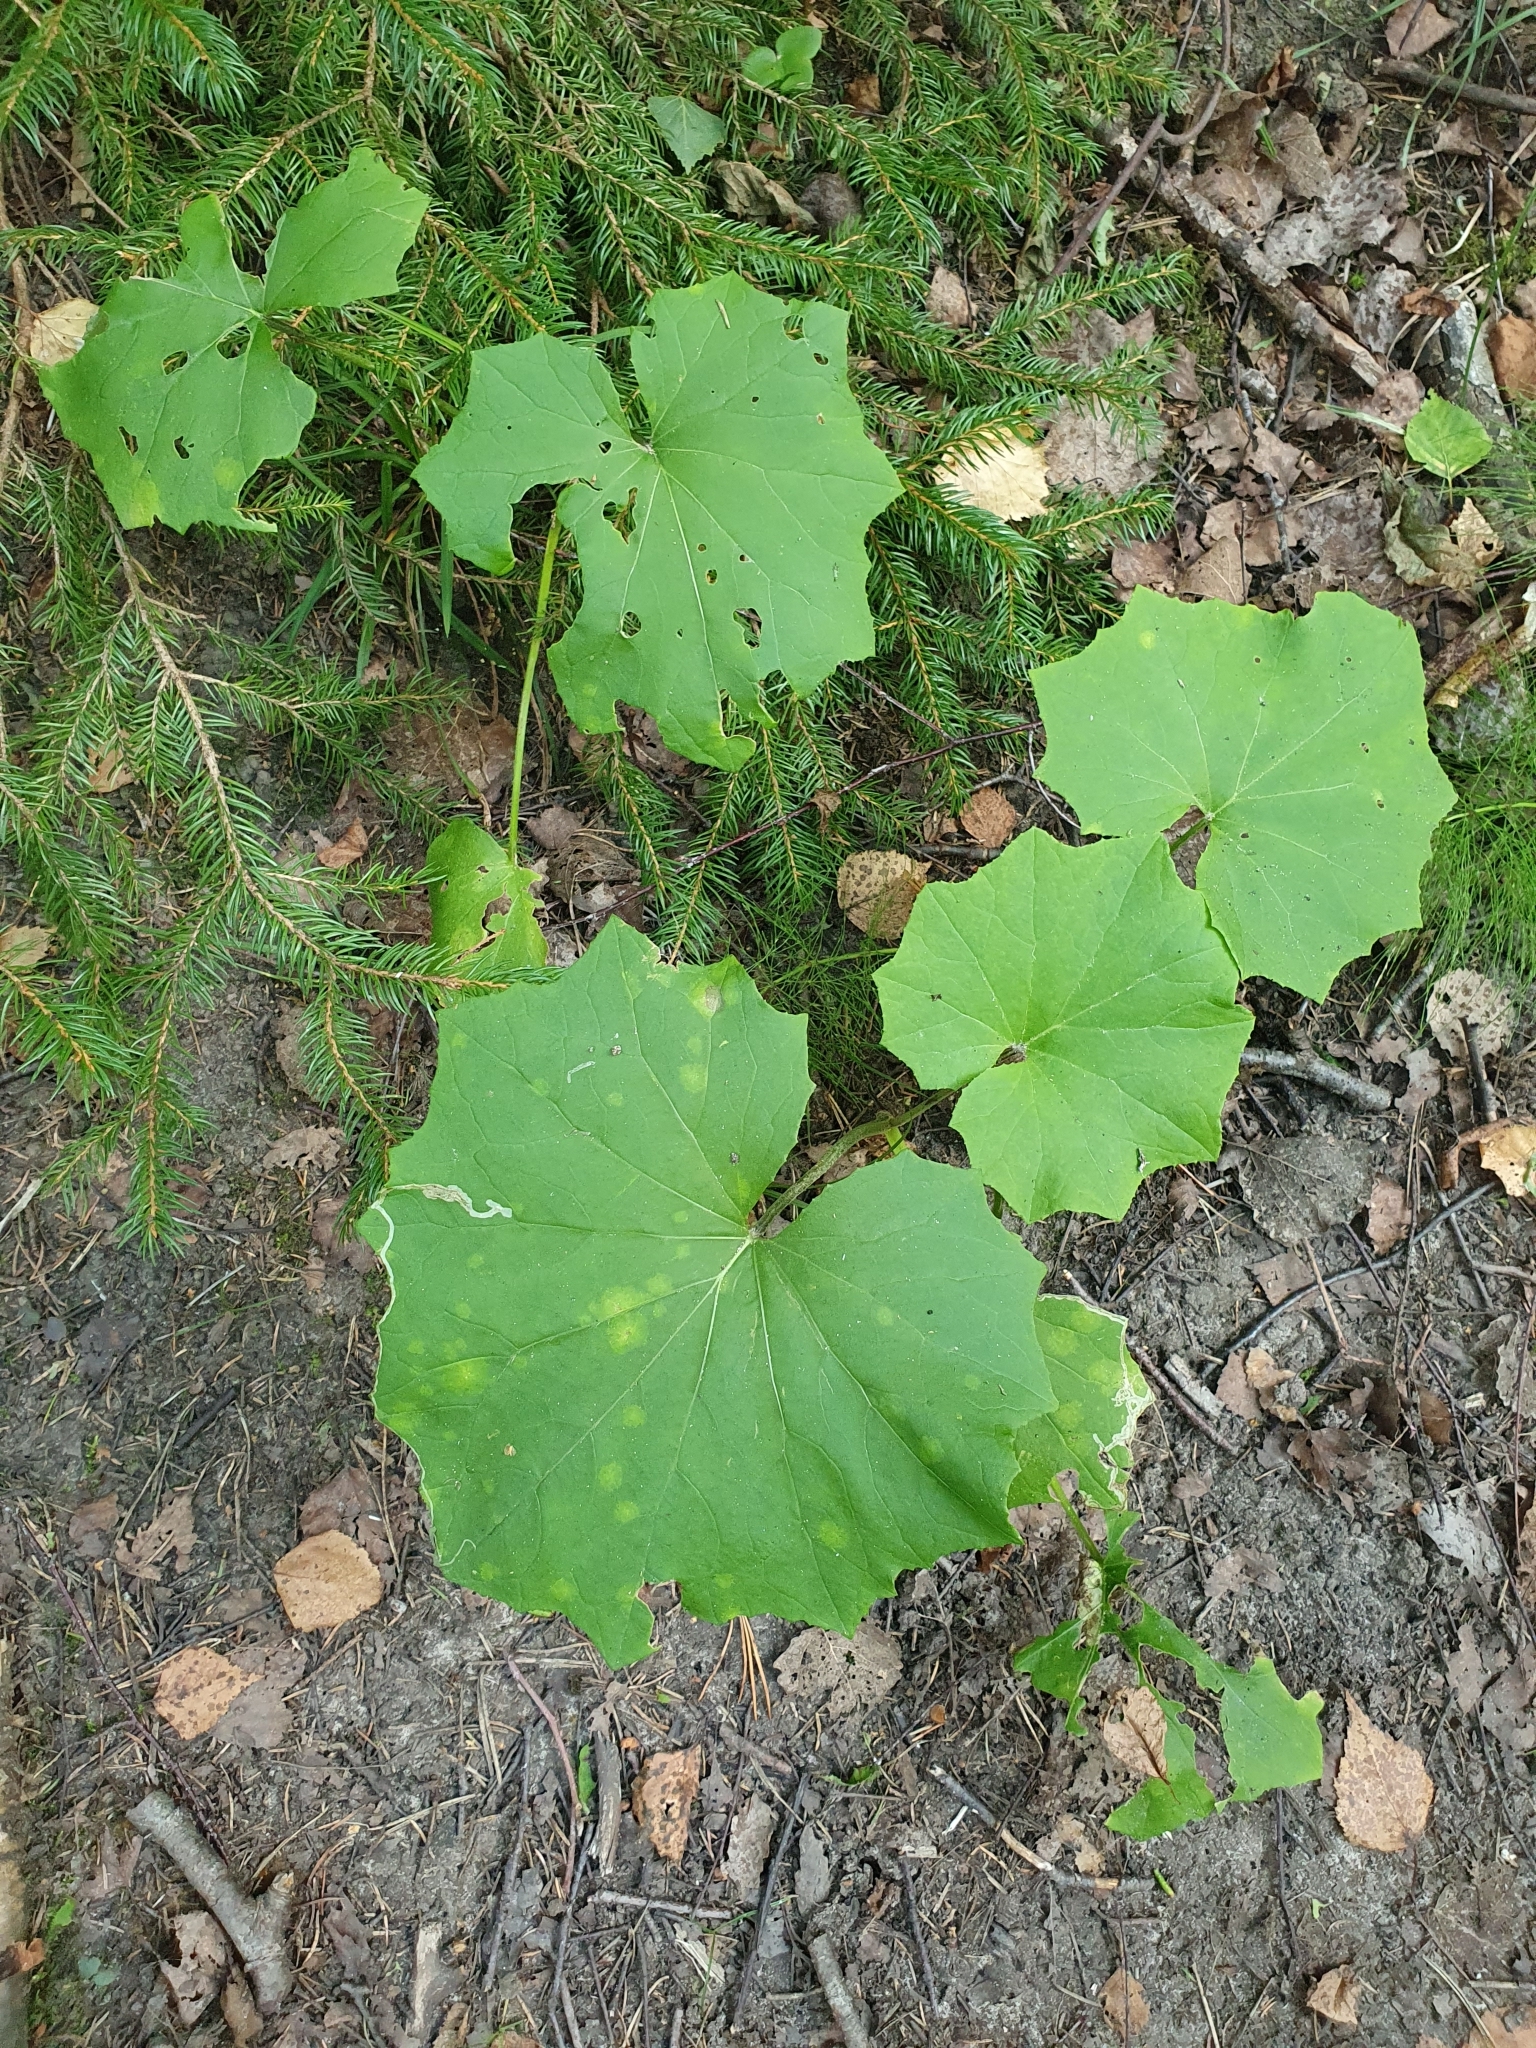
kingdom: Plantae
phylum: Tracheophyta
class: Magnoliopsida
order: Asterales
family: Asteraceae
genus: Tussilago
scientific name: Tussilago farfara
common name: Coltsfoot
